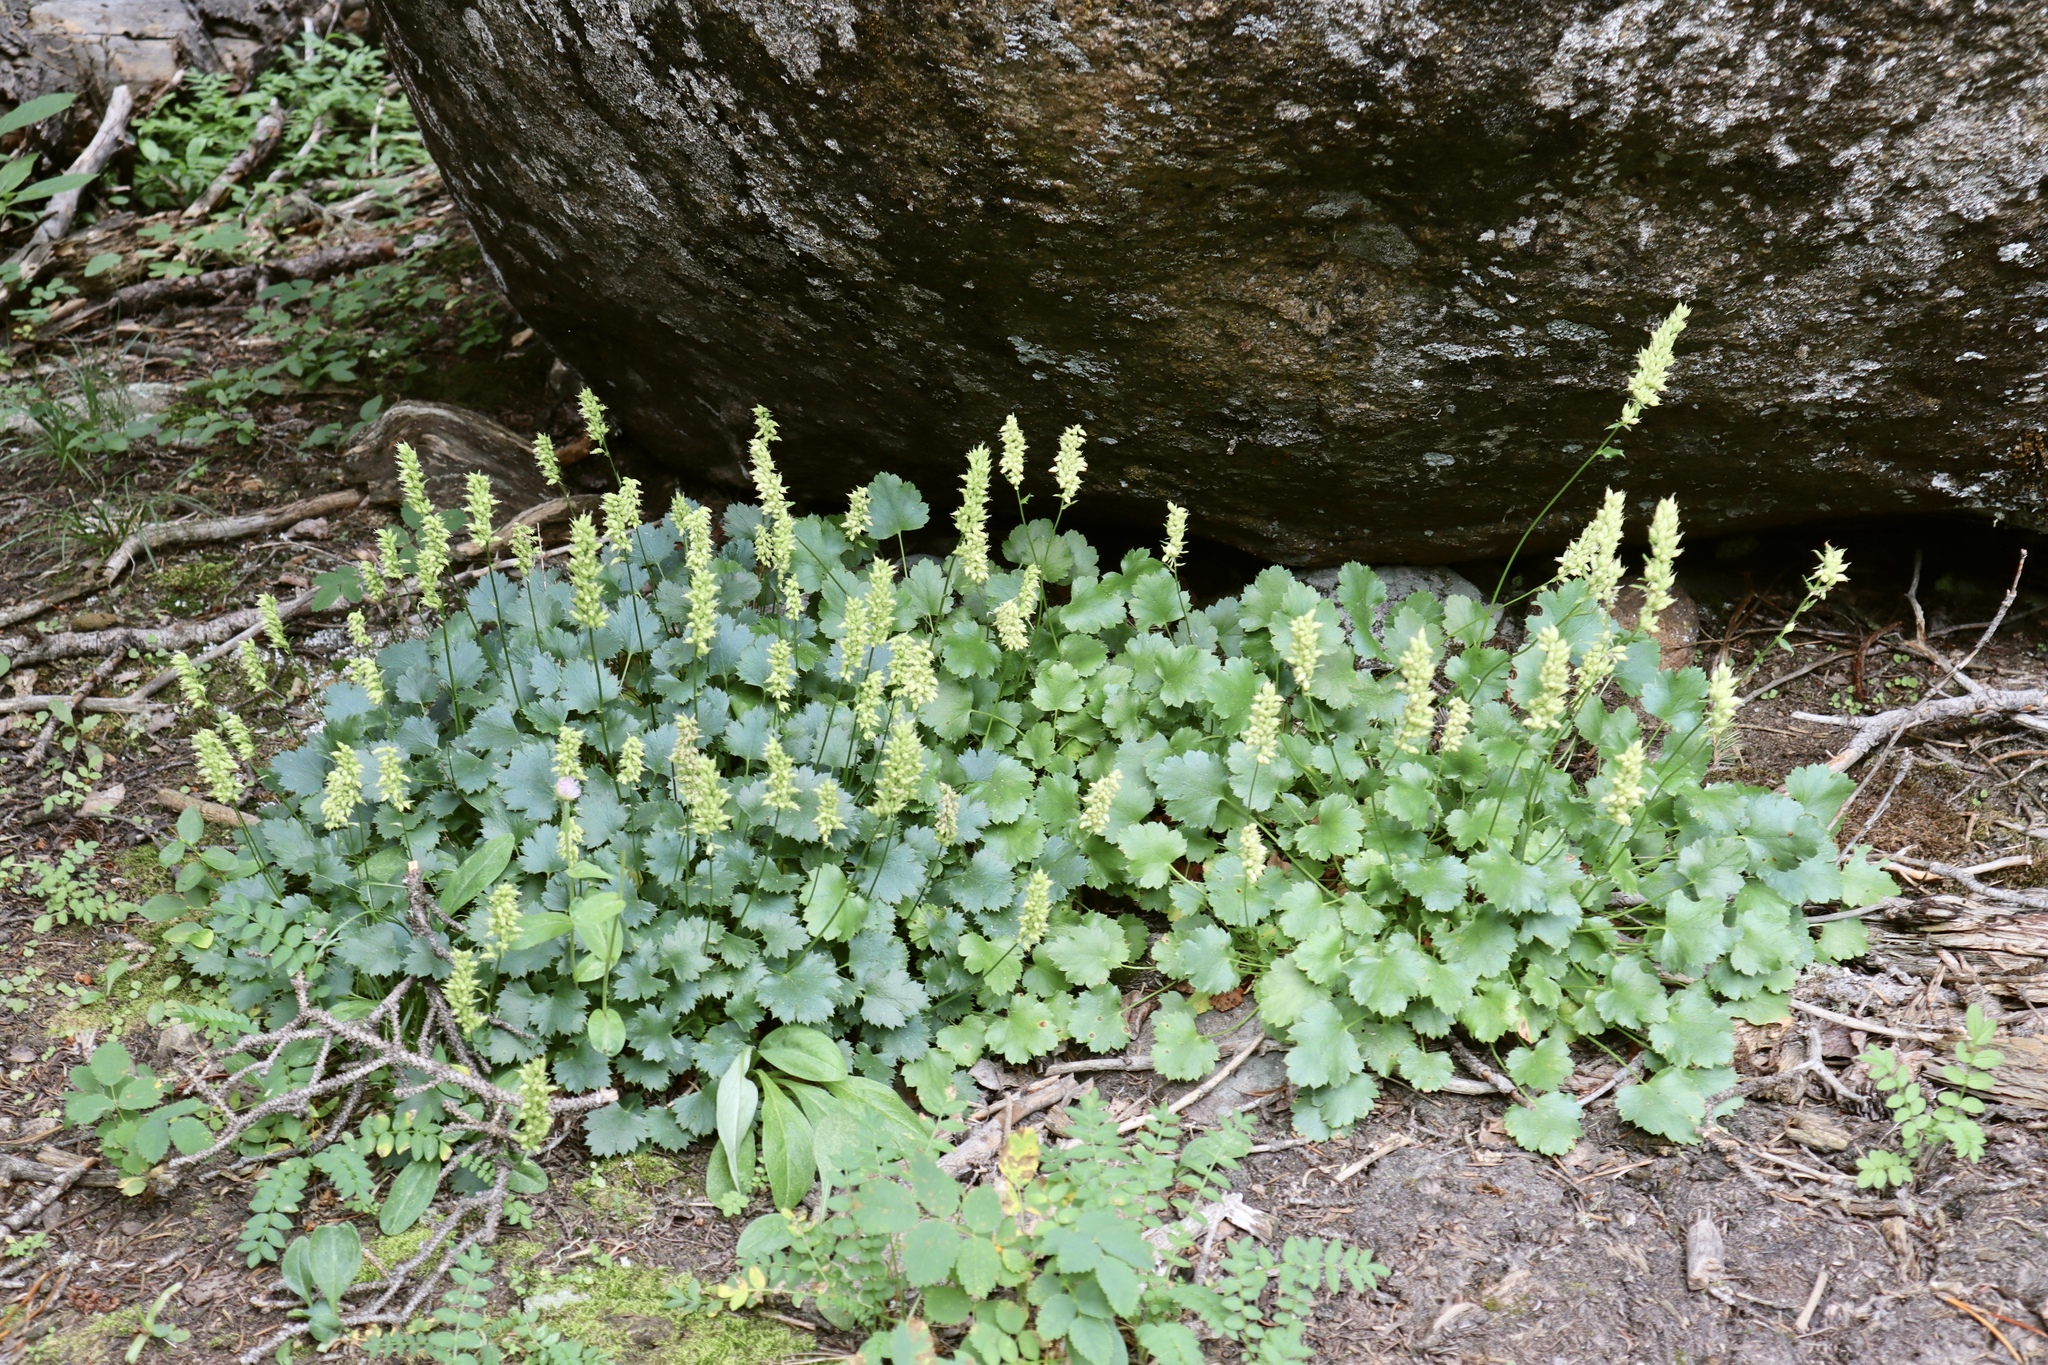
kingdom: Plantae
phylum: Tracheophyta
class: Magnoliopsida
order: Saxifragales
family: Saxifragaceae
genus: Heuchera
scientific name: Heuchera bracteata
